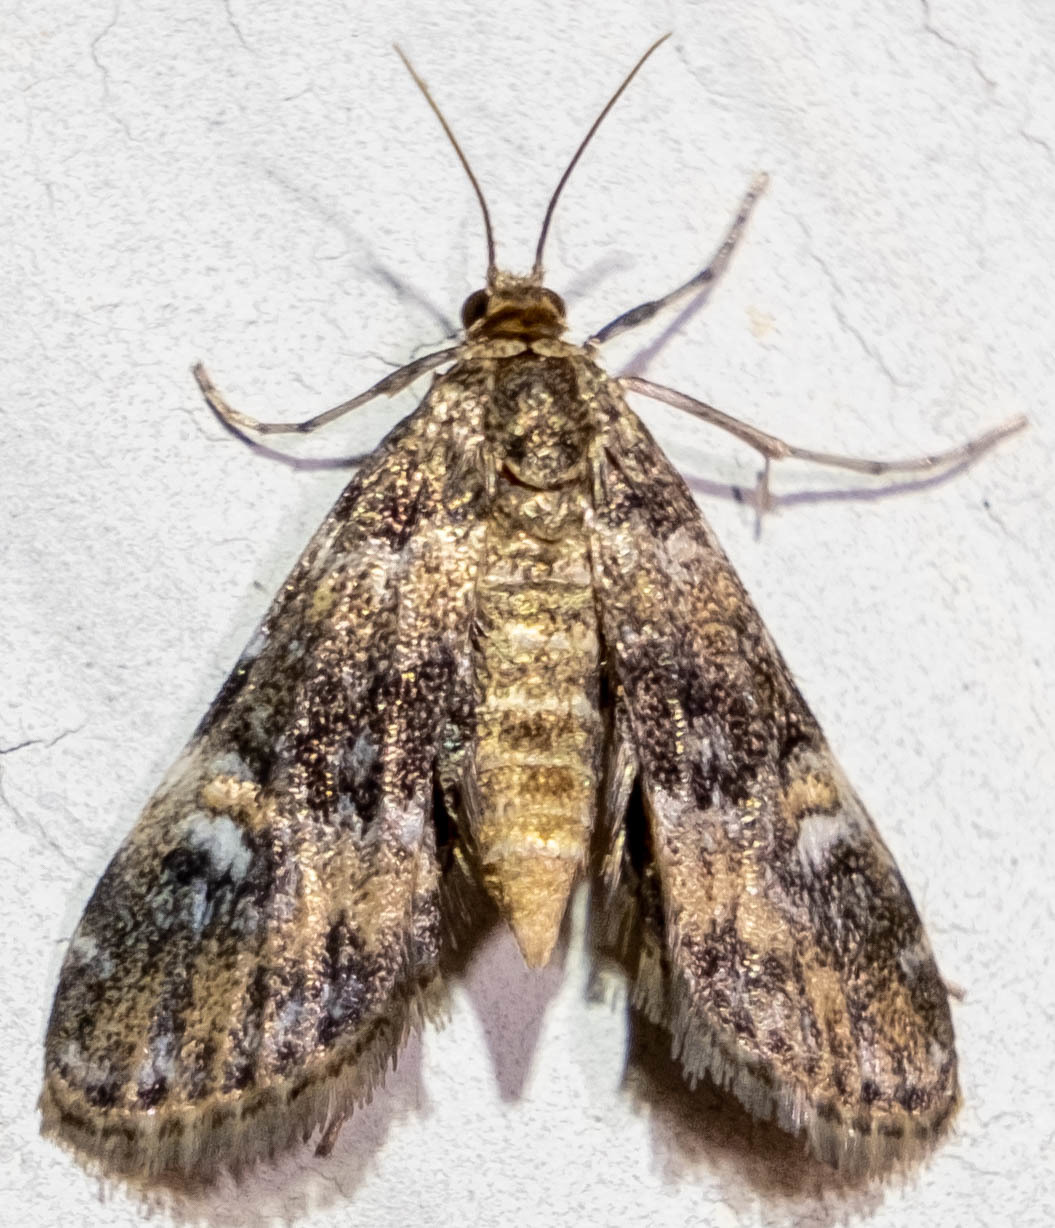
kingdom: Animalia
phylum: Arthropoda
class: Insecta
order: Lepidoptera
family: Crambidae
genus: Elophila
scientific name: Elophila obliteralis
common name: Waterlily leafcutter moth
